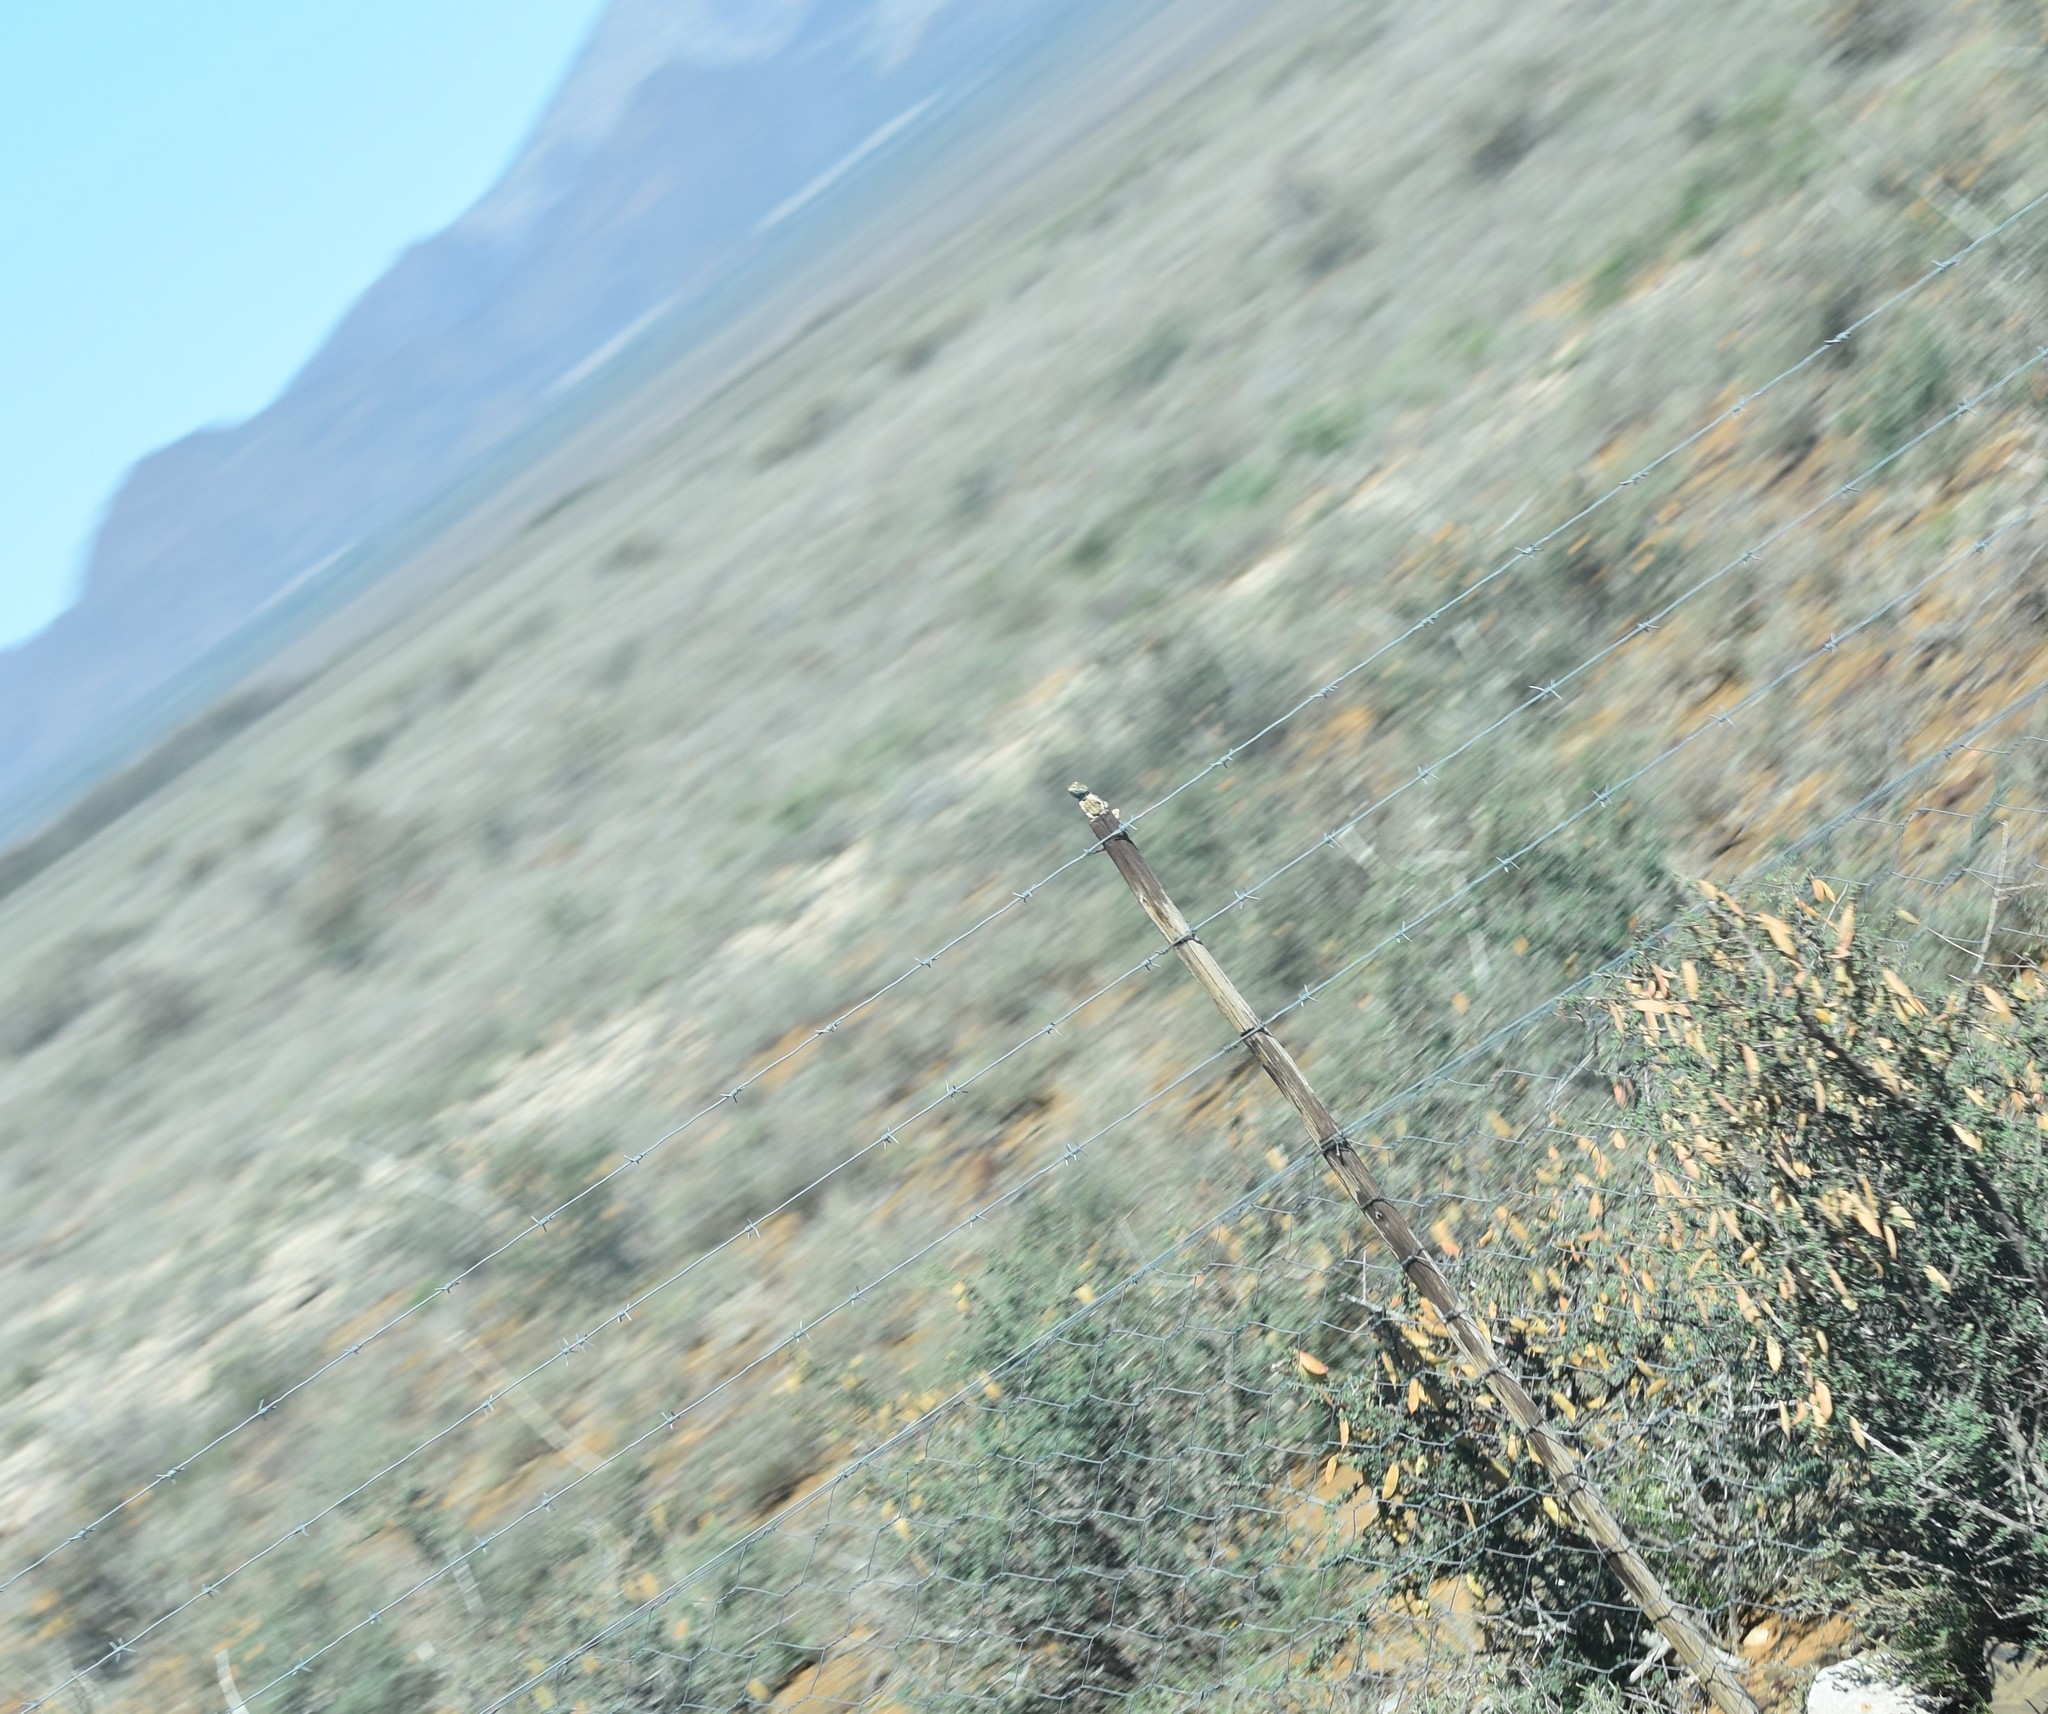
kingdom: Animalia
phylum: Chordata
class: Squamata
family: Agamidae
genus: Agama
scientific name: Agama aculeata
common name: Common ground agama
